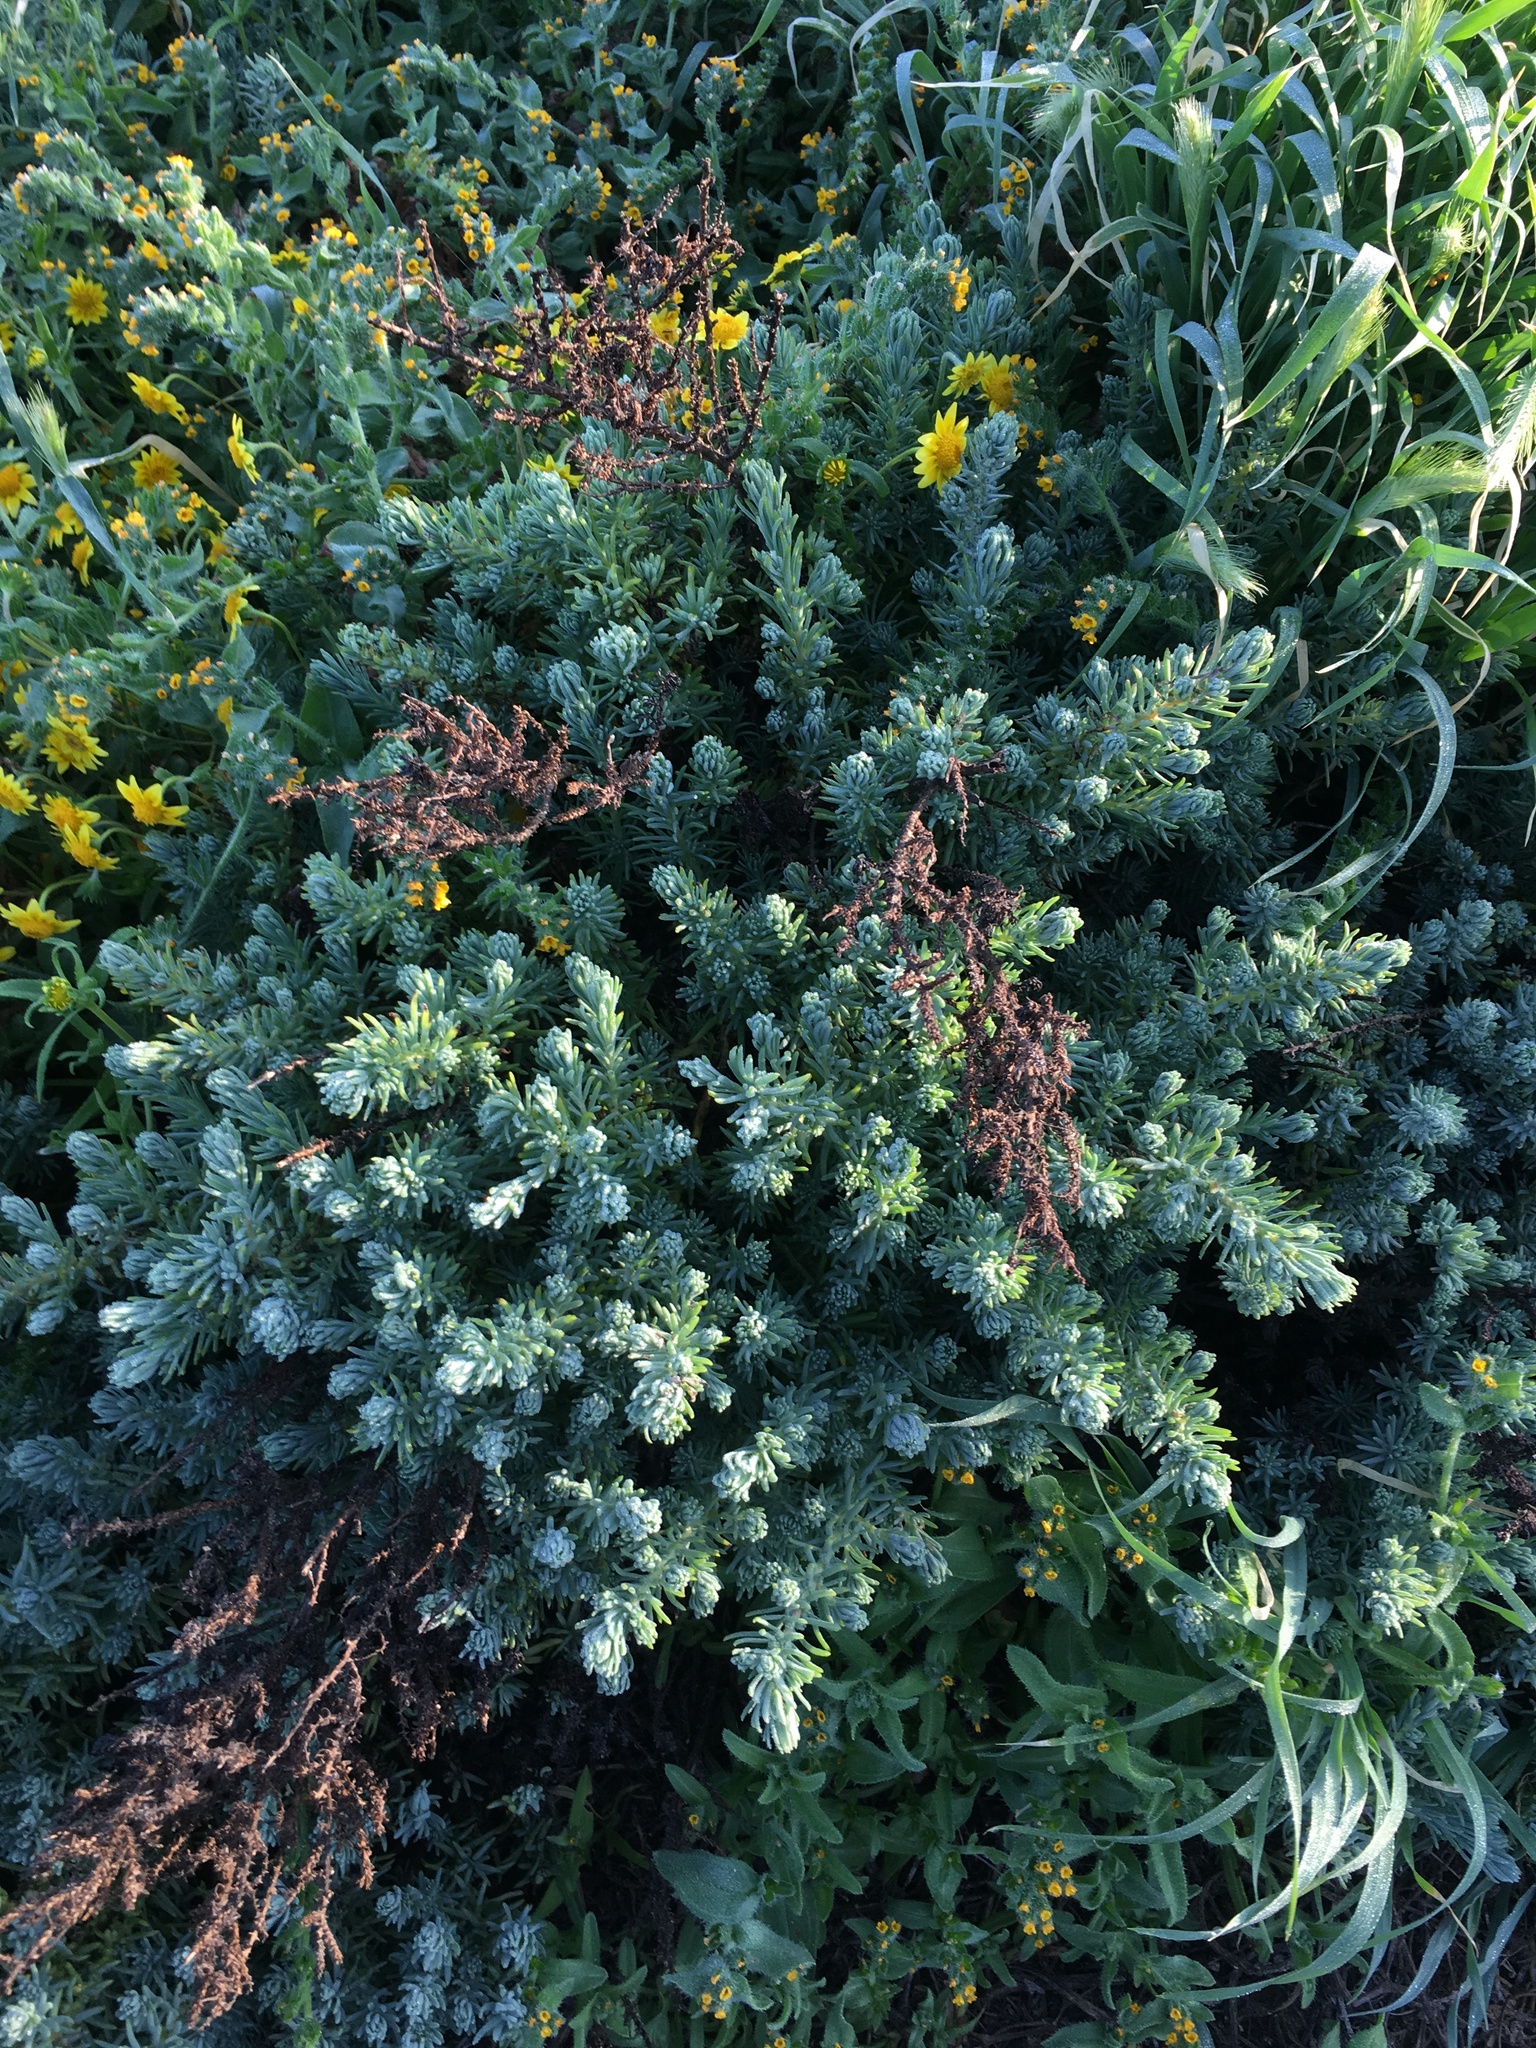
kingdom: Plantae
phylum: Tracheophyta
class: Magnoliopsida
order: Caryophyllales
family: Amaranthaceae
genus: Suaeda
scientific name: Suaeda taxifolia
